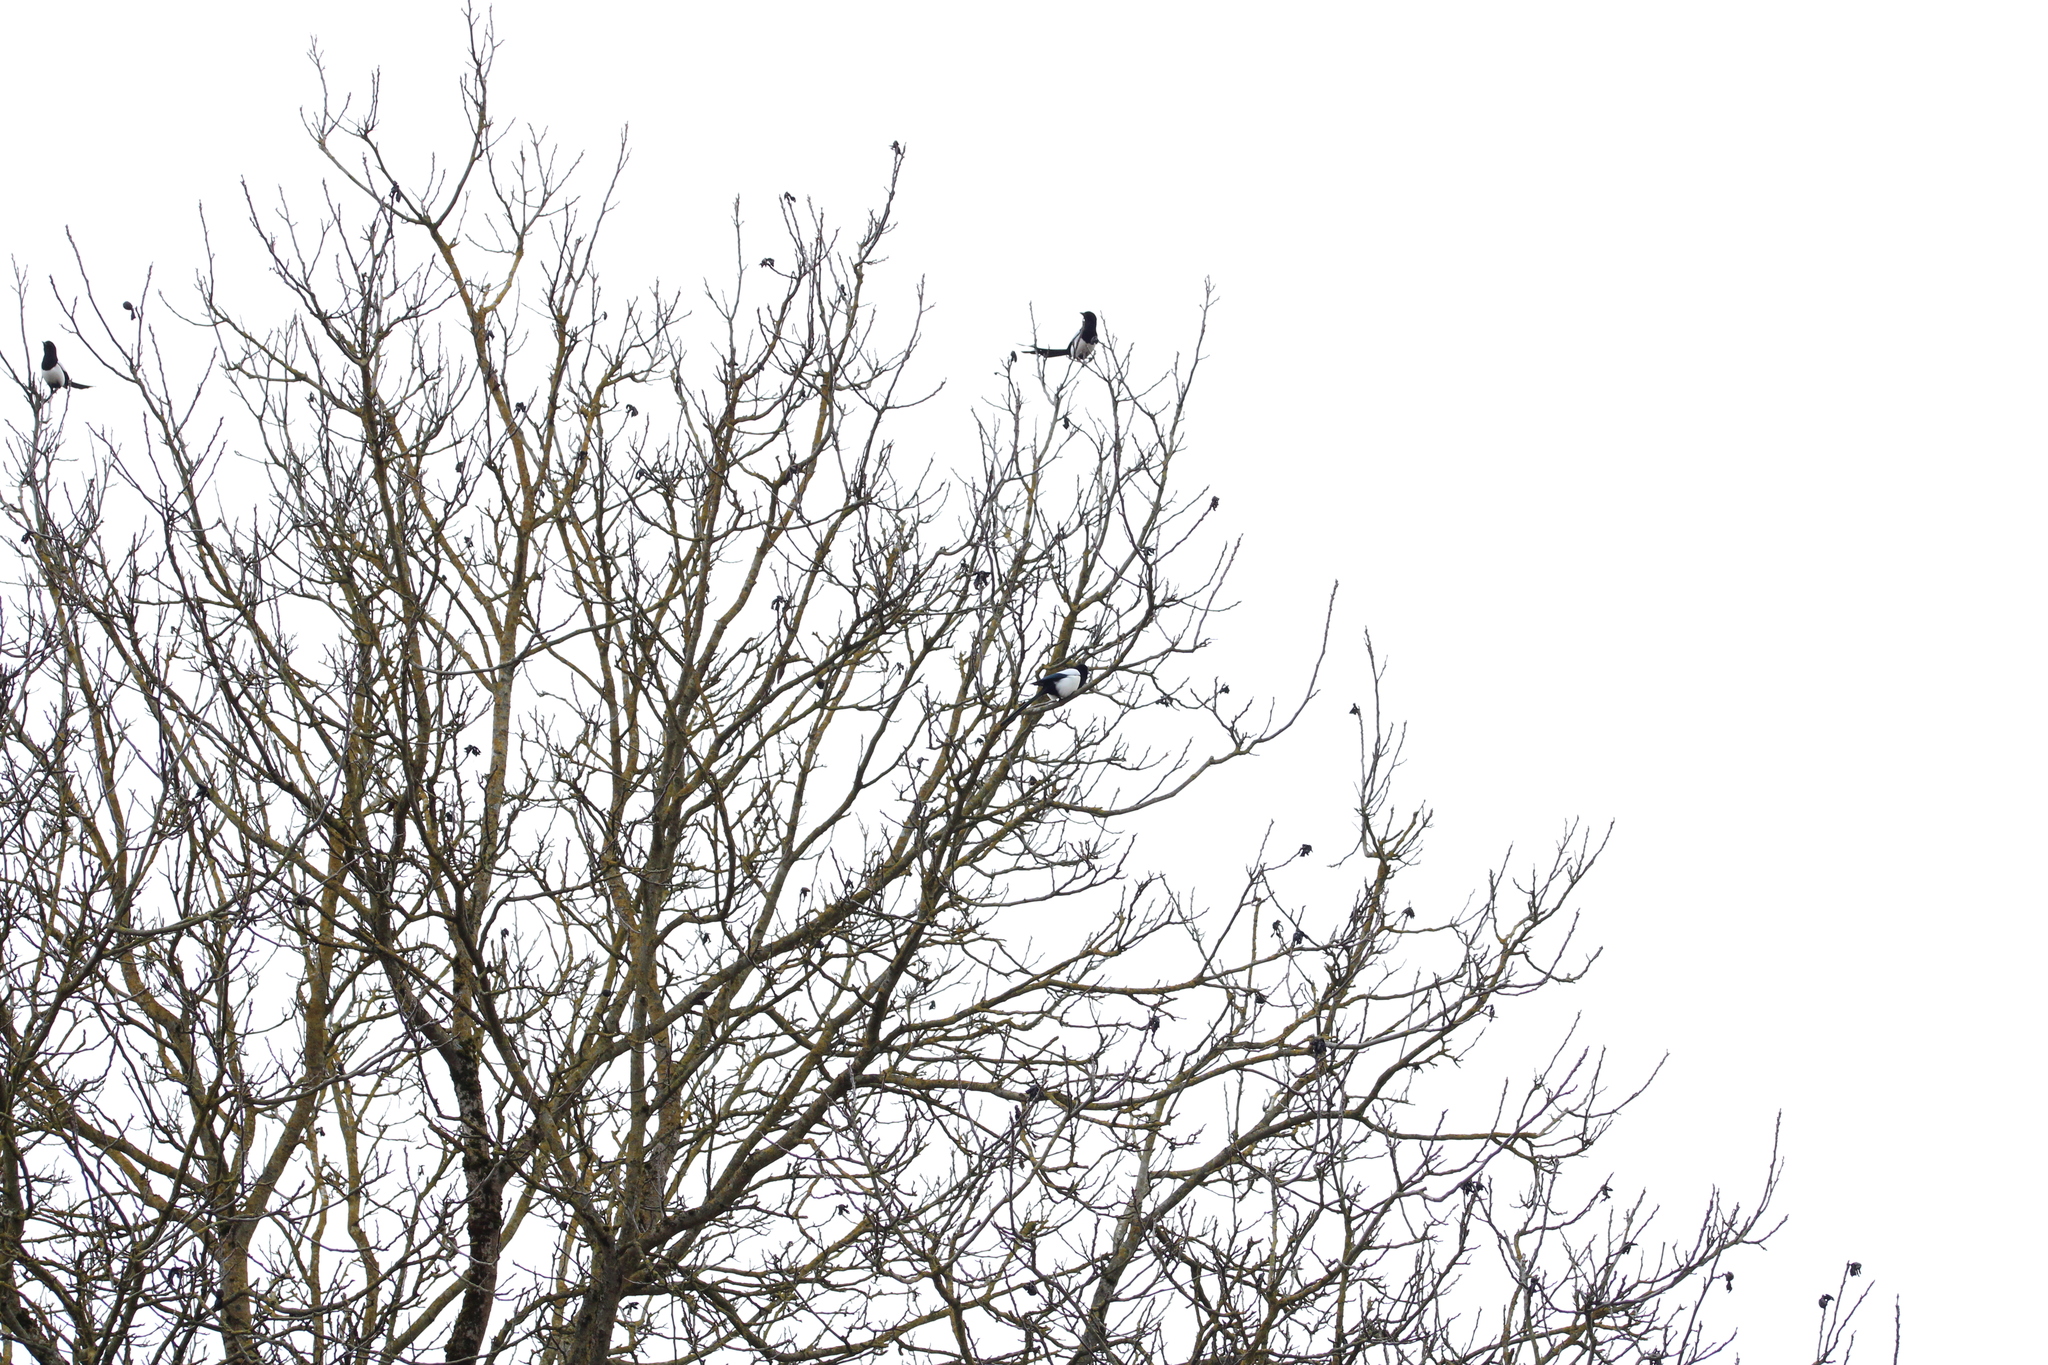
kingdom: Animalia
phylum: Chordata
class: Aves
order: Passeriformes
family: Corvidae
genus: Pica
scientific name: Pica pica
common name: Eurasian magpie
